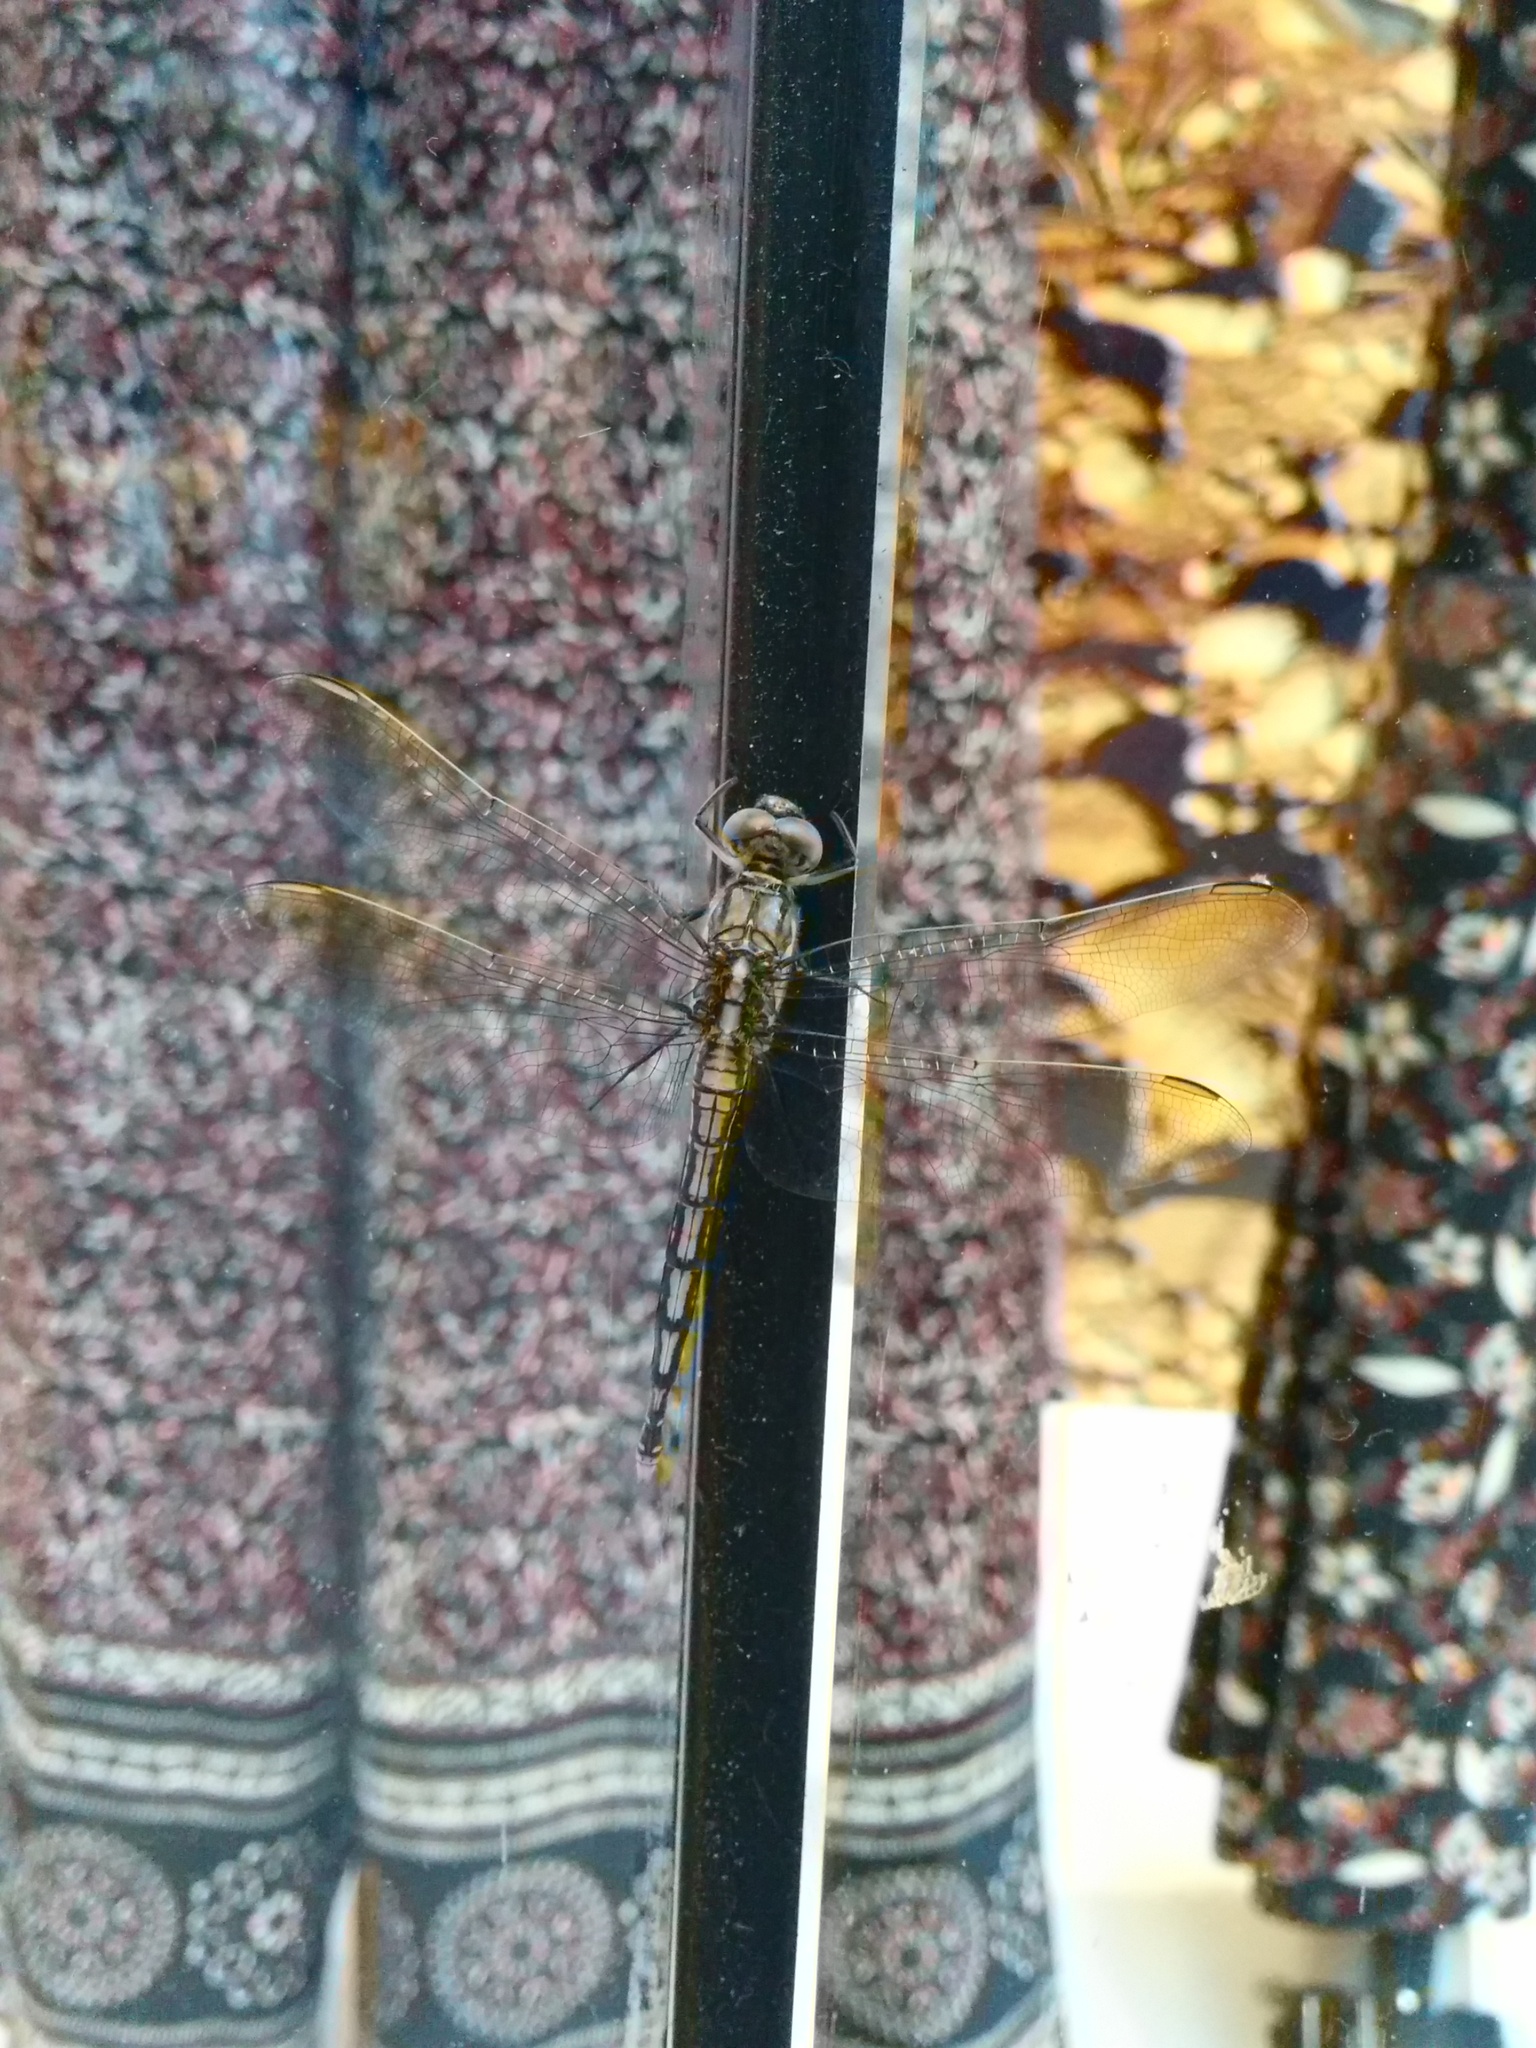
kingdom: Animalia
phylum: Arthropoda
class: Insecta
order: Odonata
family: Libellulidae
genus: Orthetrum
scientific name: Orthetrum caledonicum
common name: Blue skimmer
